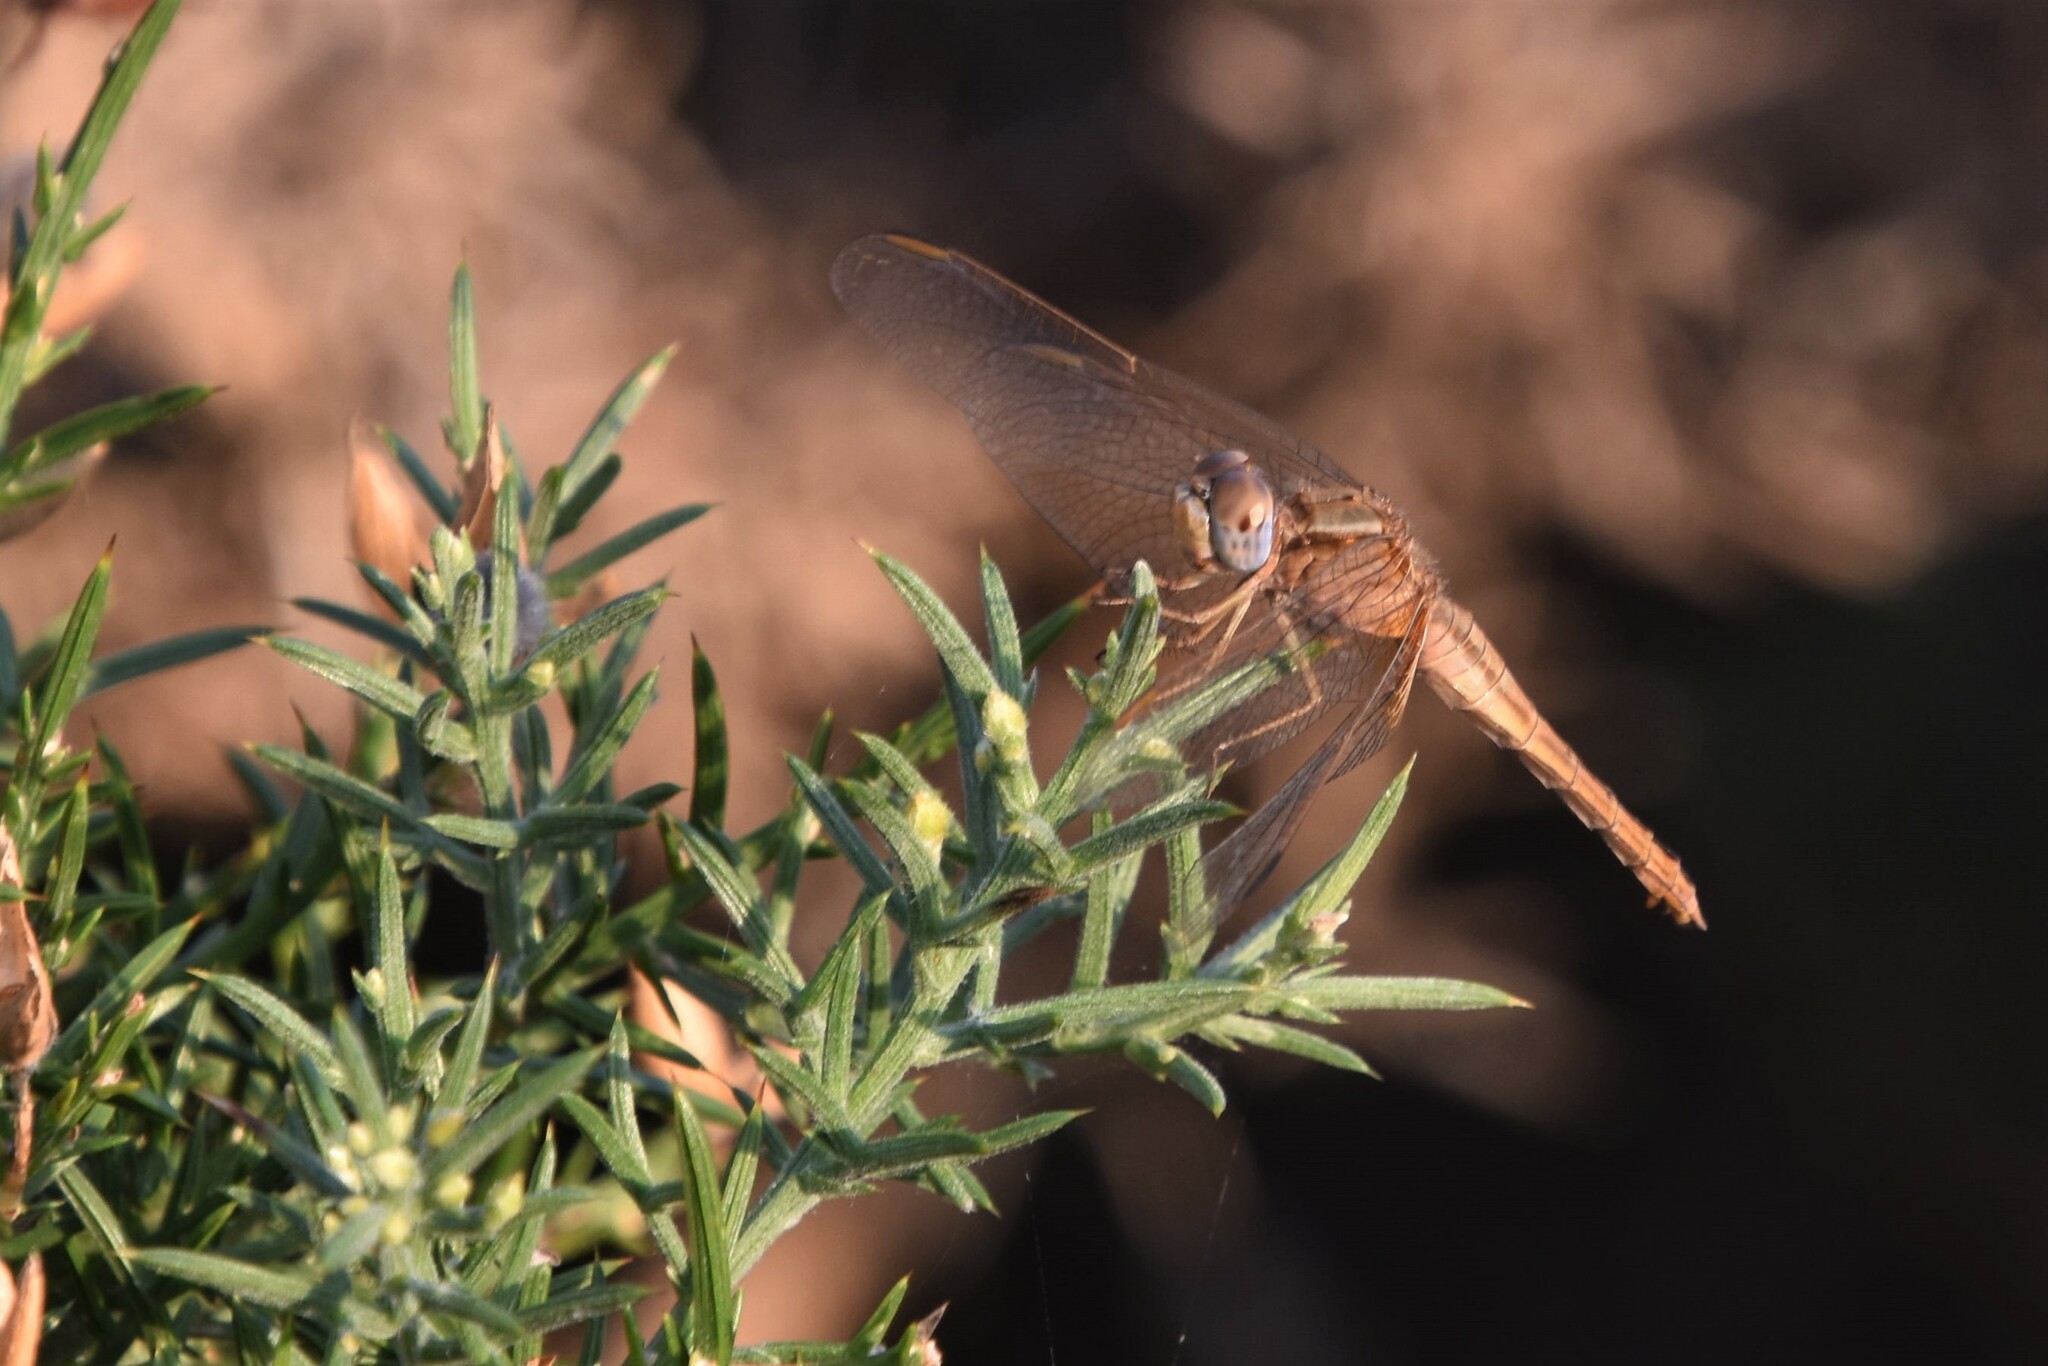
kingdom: Animalia
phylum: Arthropoda
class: Insecta
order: Odonata
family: Libellulidae
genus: Crocothemis
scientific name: Crocothemis erythraea
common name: Scarlet dragonfly
